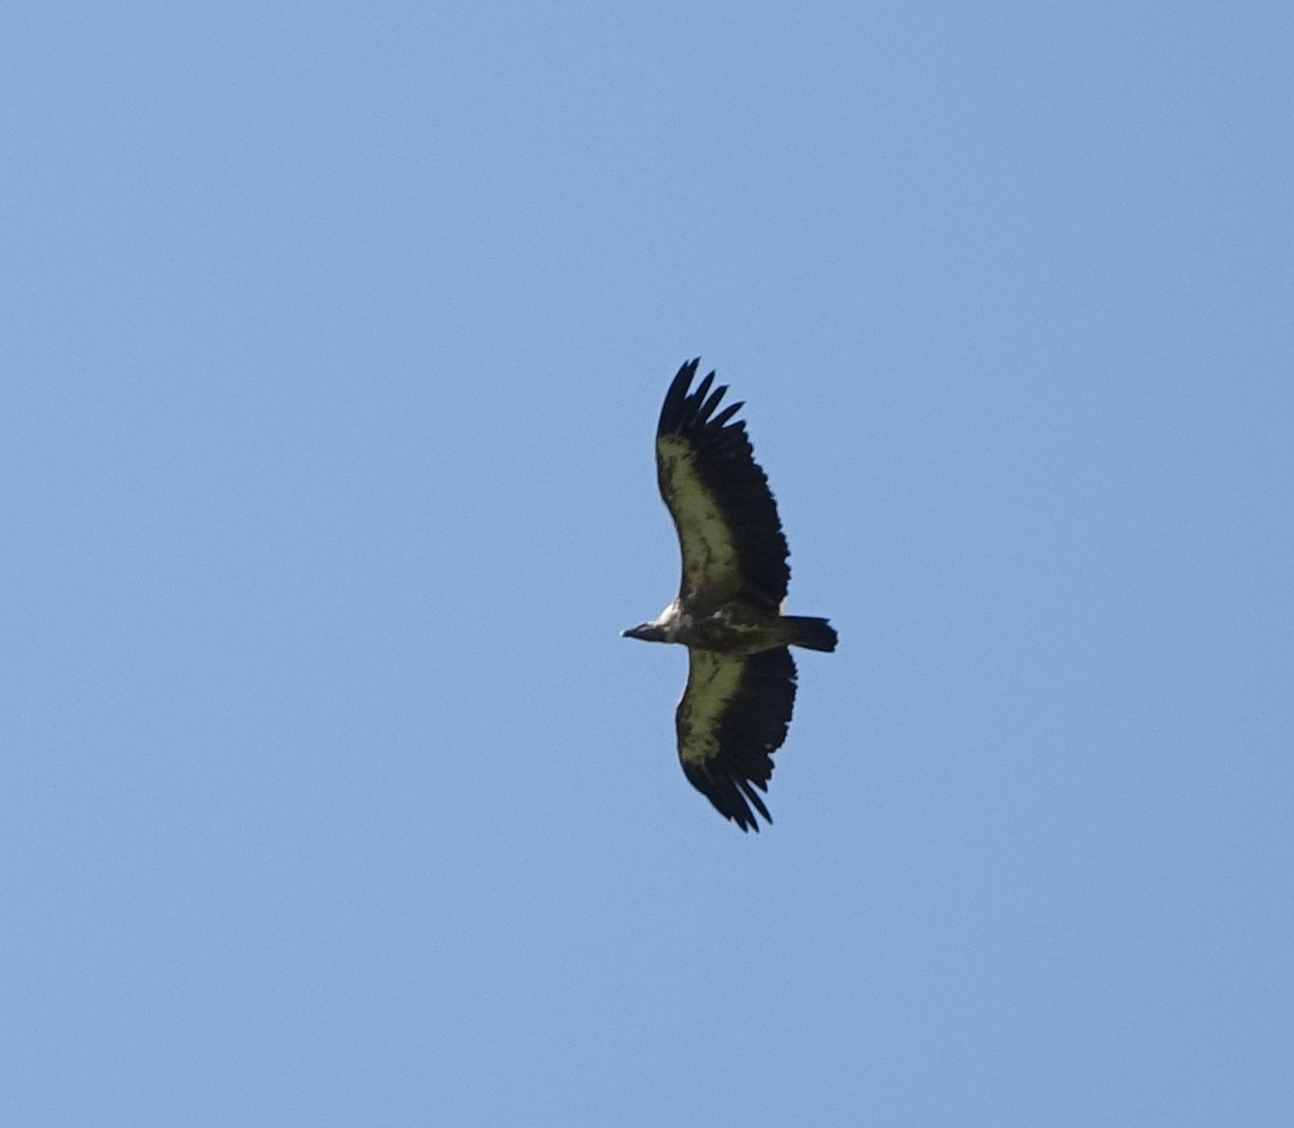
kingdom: Animalia
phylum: Chordata
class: Aves
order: Accipitriformes
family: Accipitridae
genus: Gyps
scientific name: Gyps fulvus
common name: Griffon vulture
